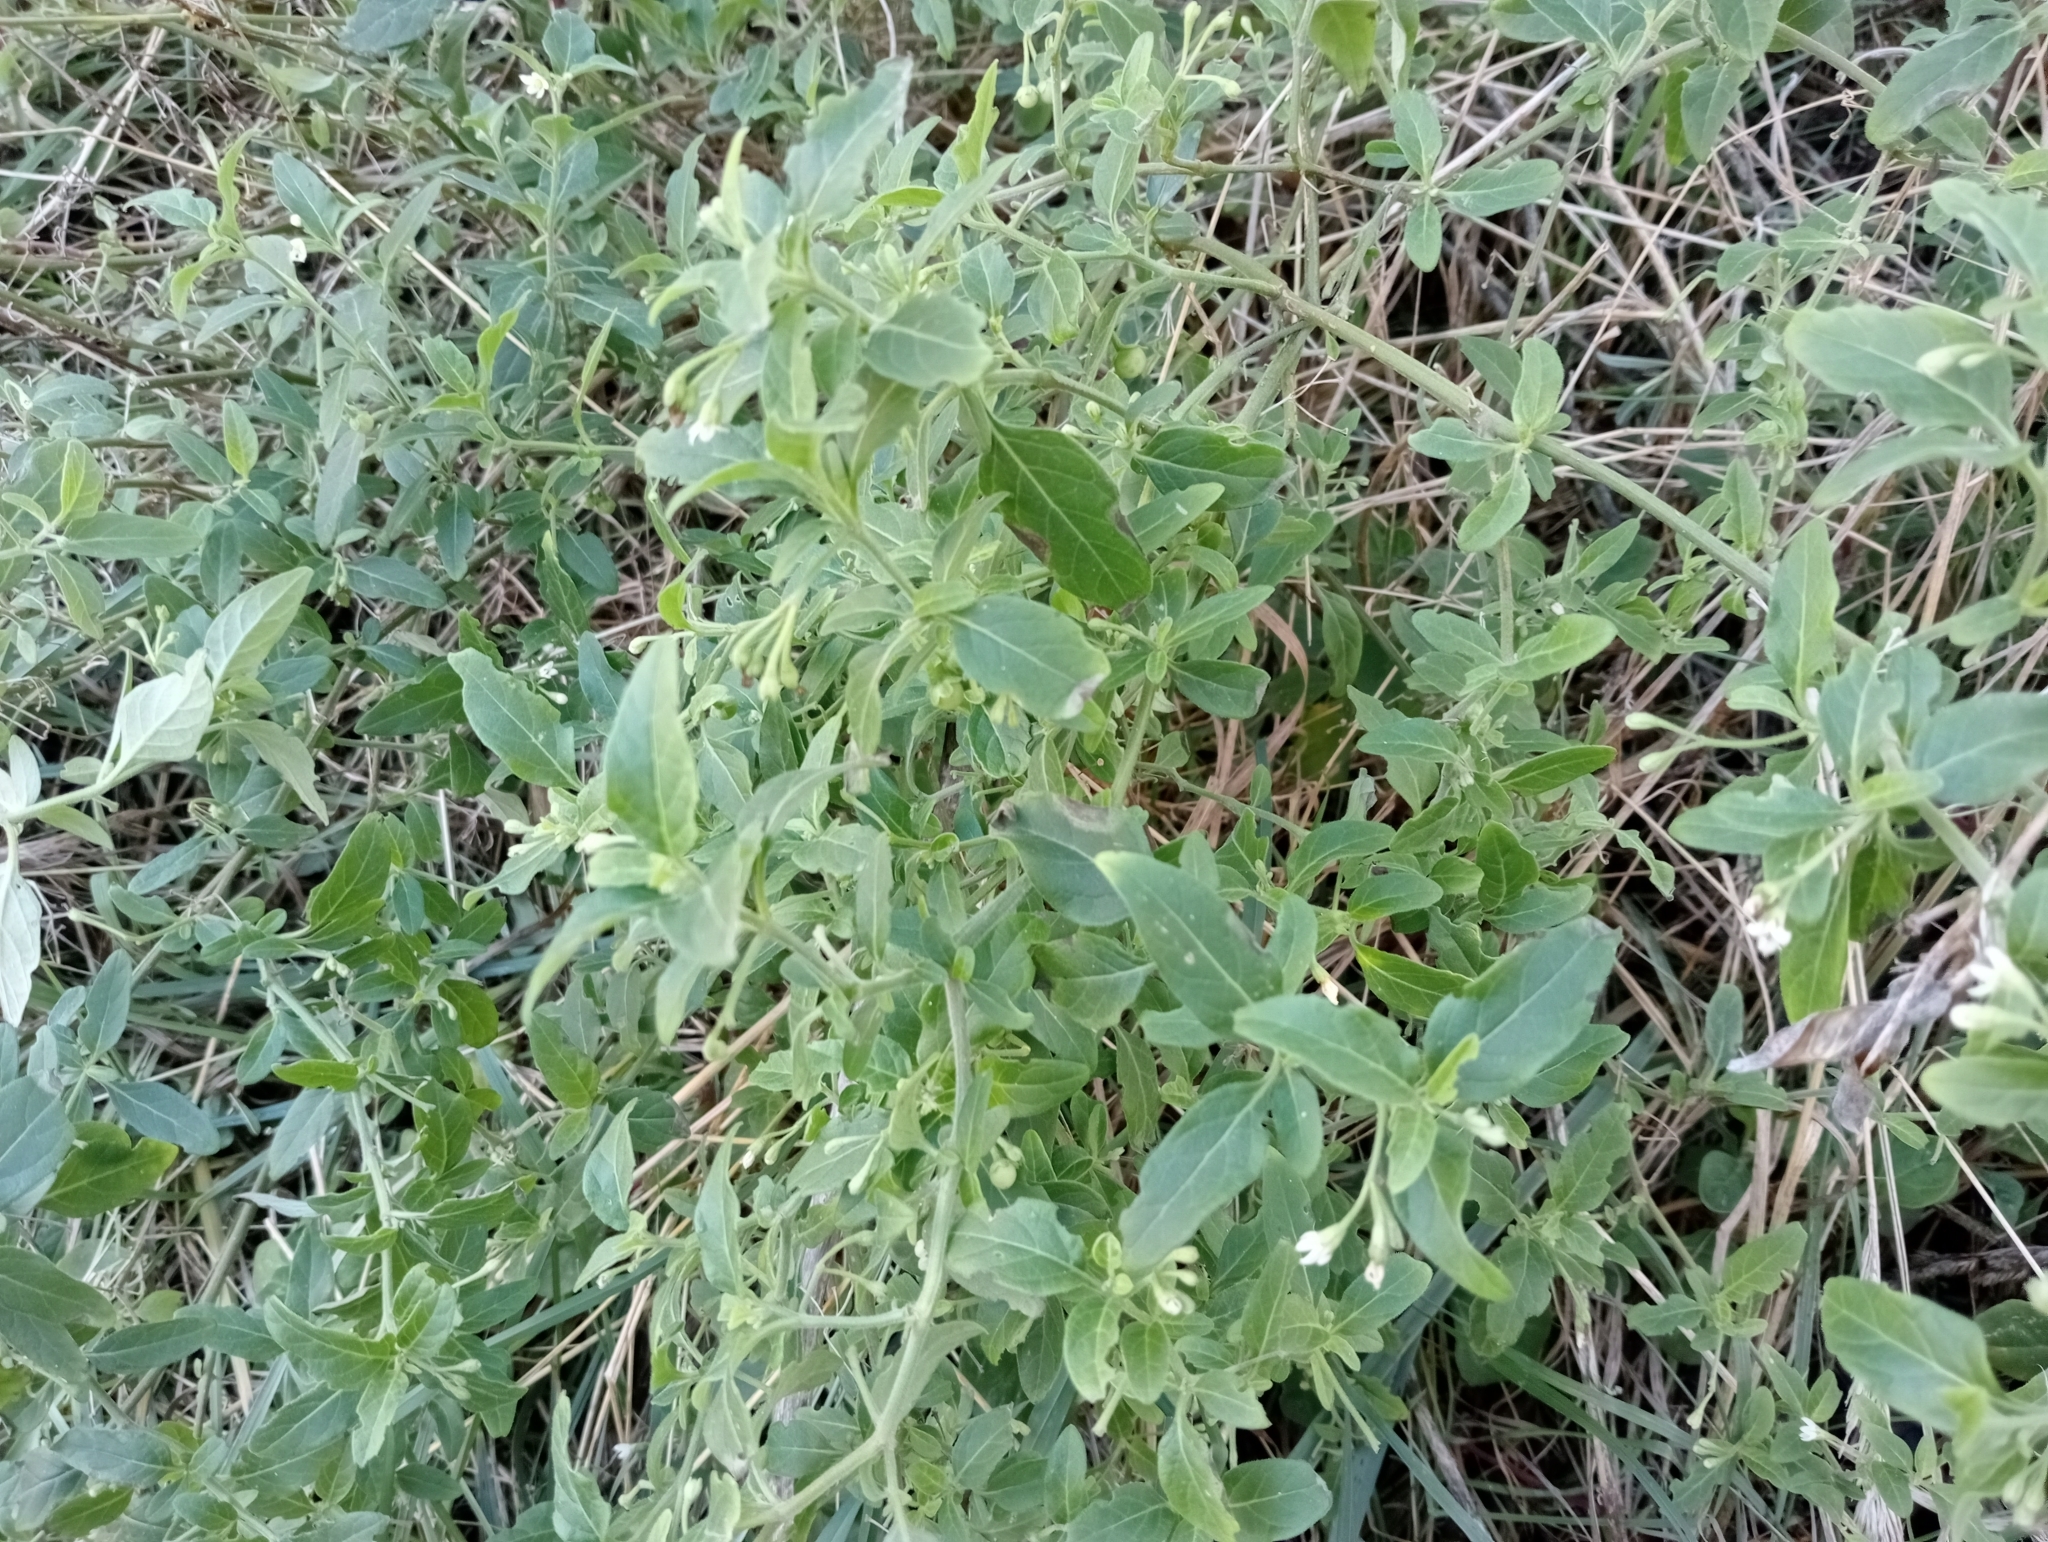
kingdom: Plantae
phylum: Tracheophyta
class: Magnoliopsida
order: Solanales
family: Solanaceae
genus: Solanum
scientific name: Solanum chenopodioides
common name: Tall nightshade
